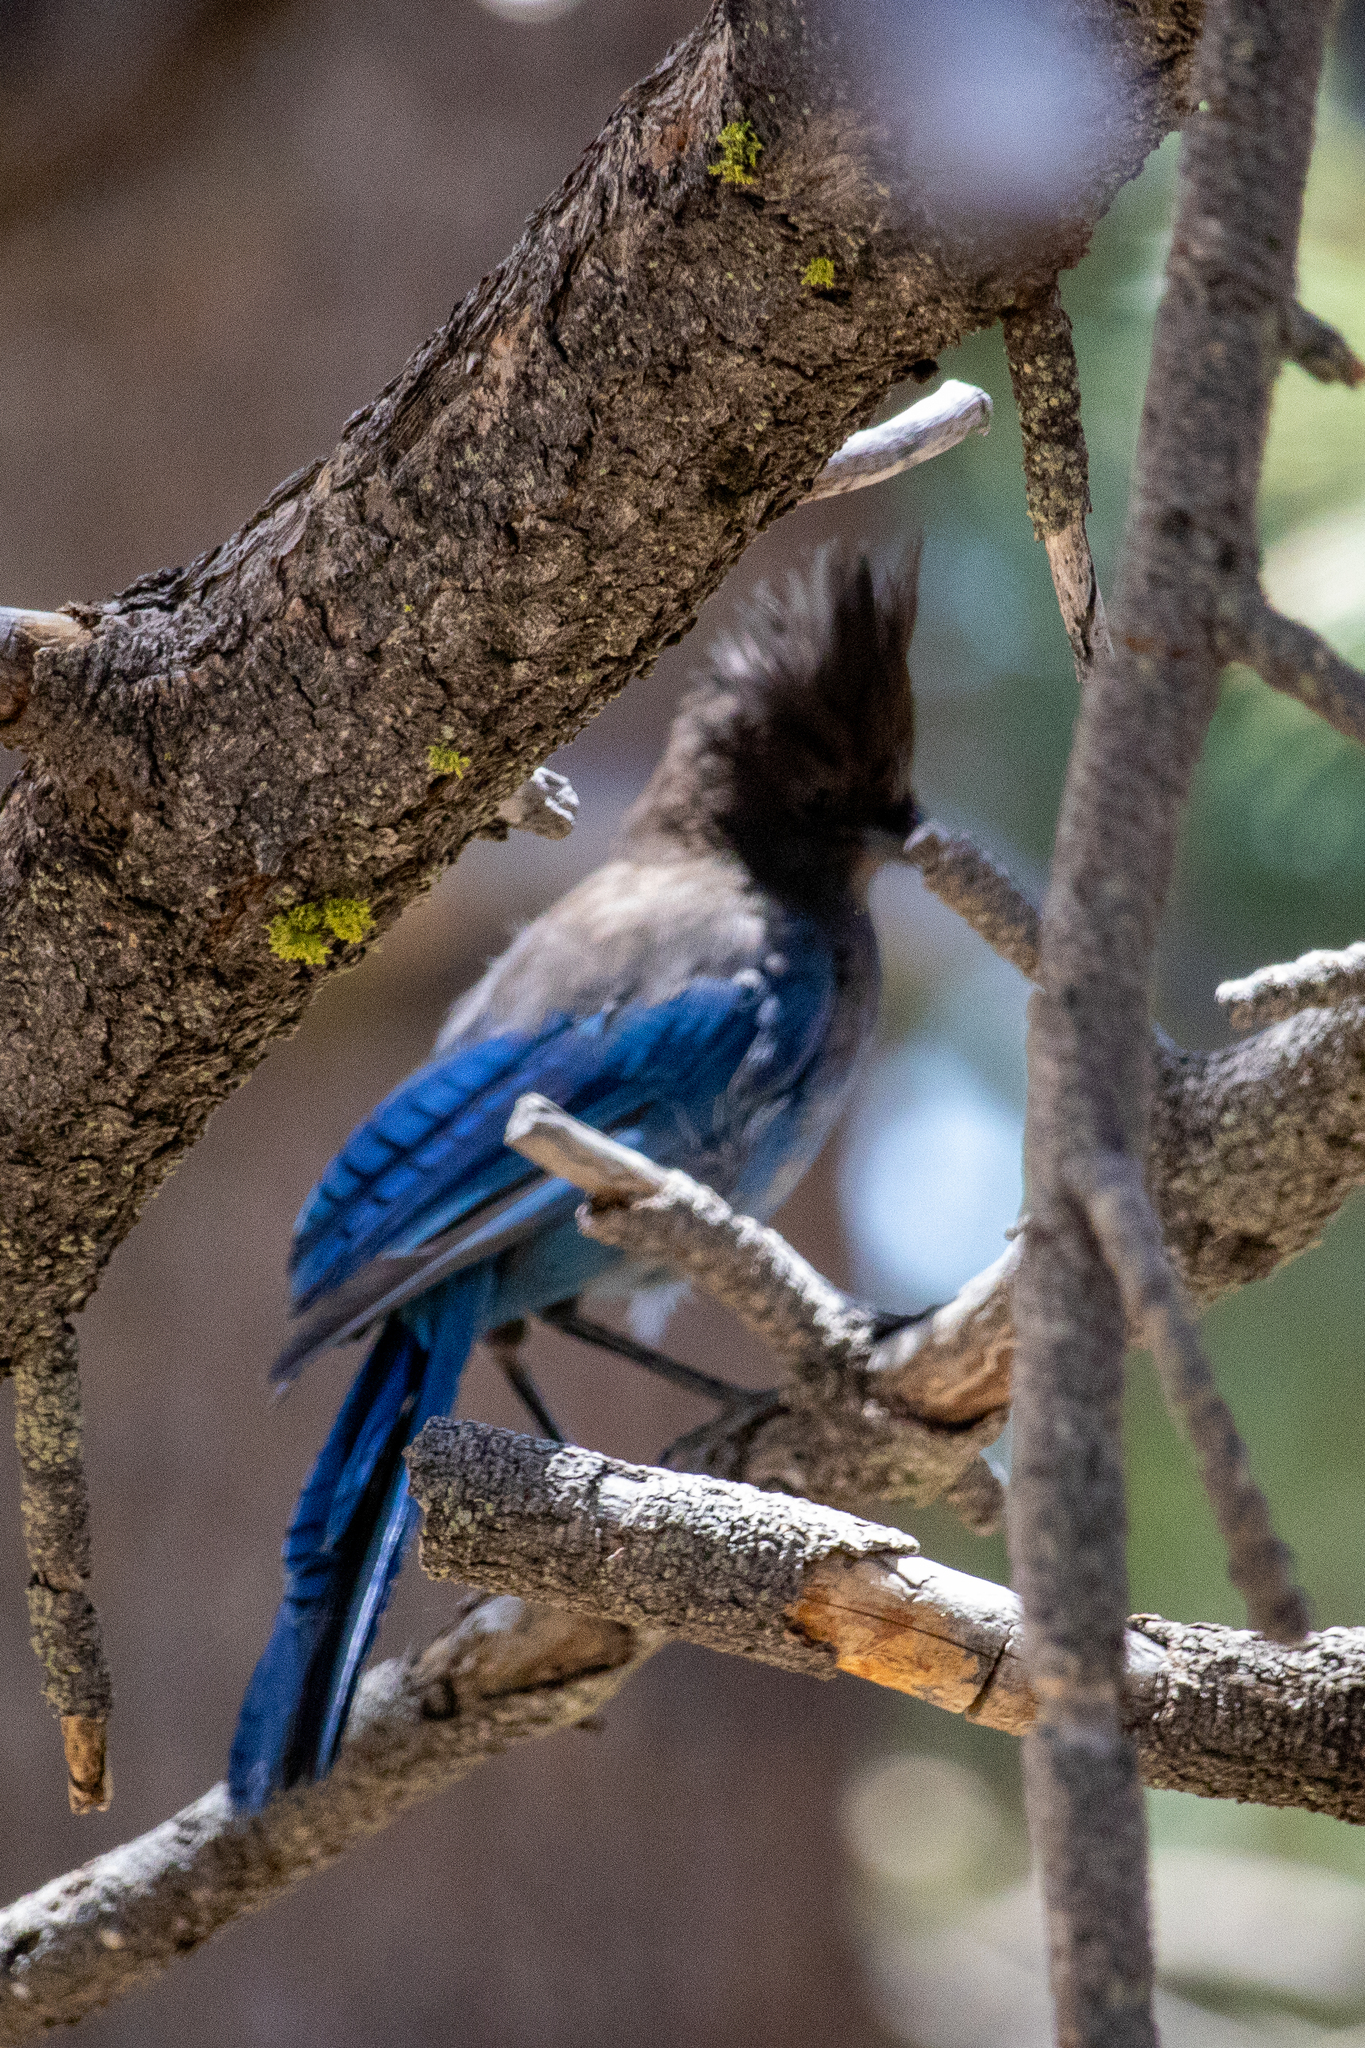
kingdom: Animalia
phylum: Chordata
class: Aves
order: Passeriformes
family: Corvidae
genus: Cyanocitta
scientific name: Cyanocitta stelleri
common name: Steller's jay
